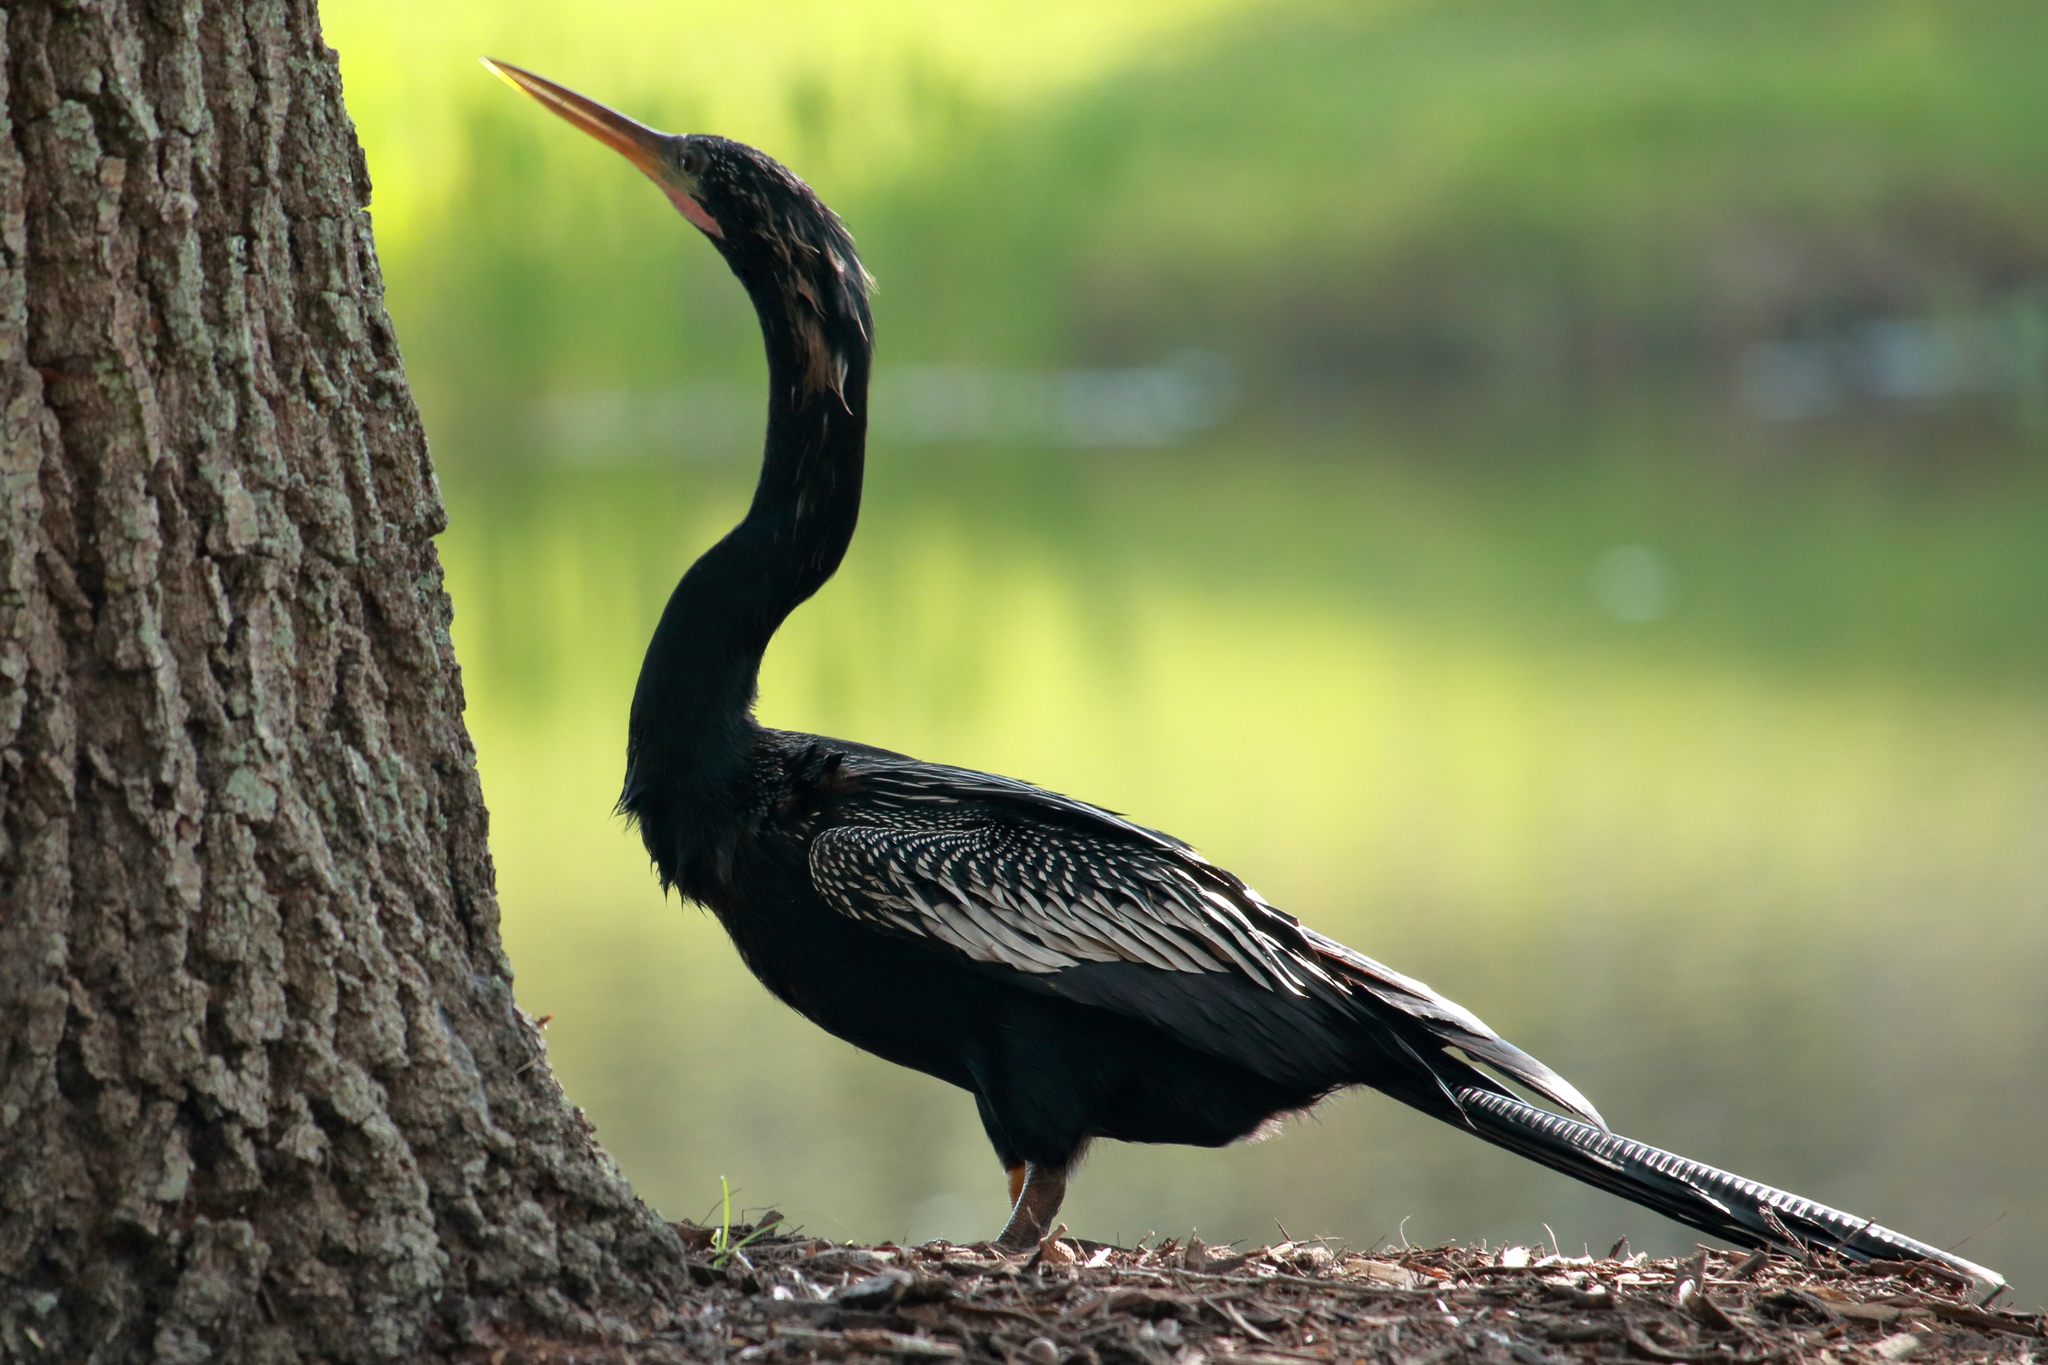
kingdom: Animalia
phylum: Chordata
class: Aves
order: Suliformes
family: Anhingidae
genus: Anhinga
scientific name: Anhinga anhinga
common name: Anhinga
